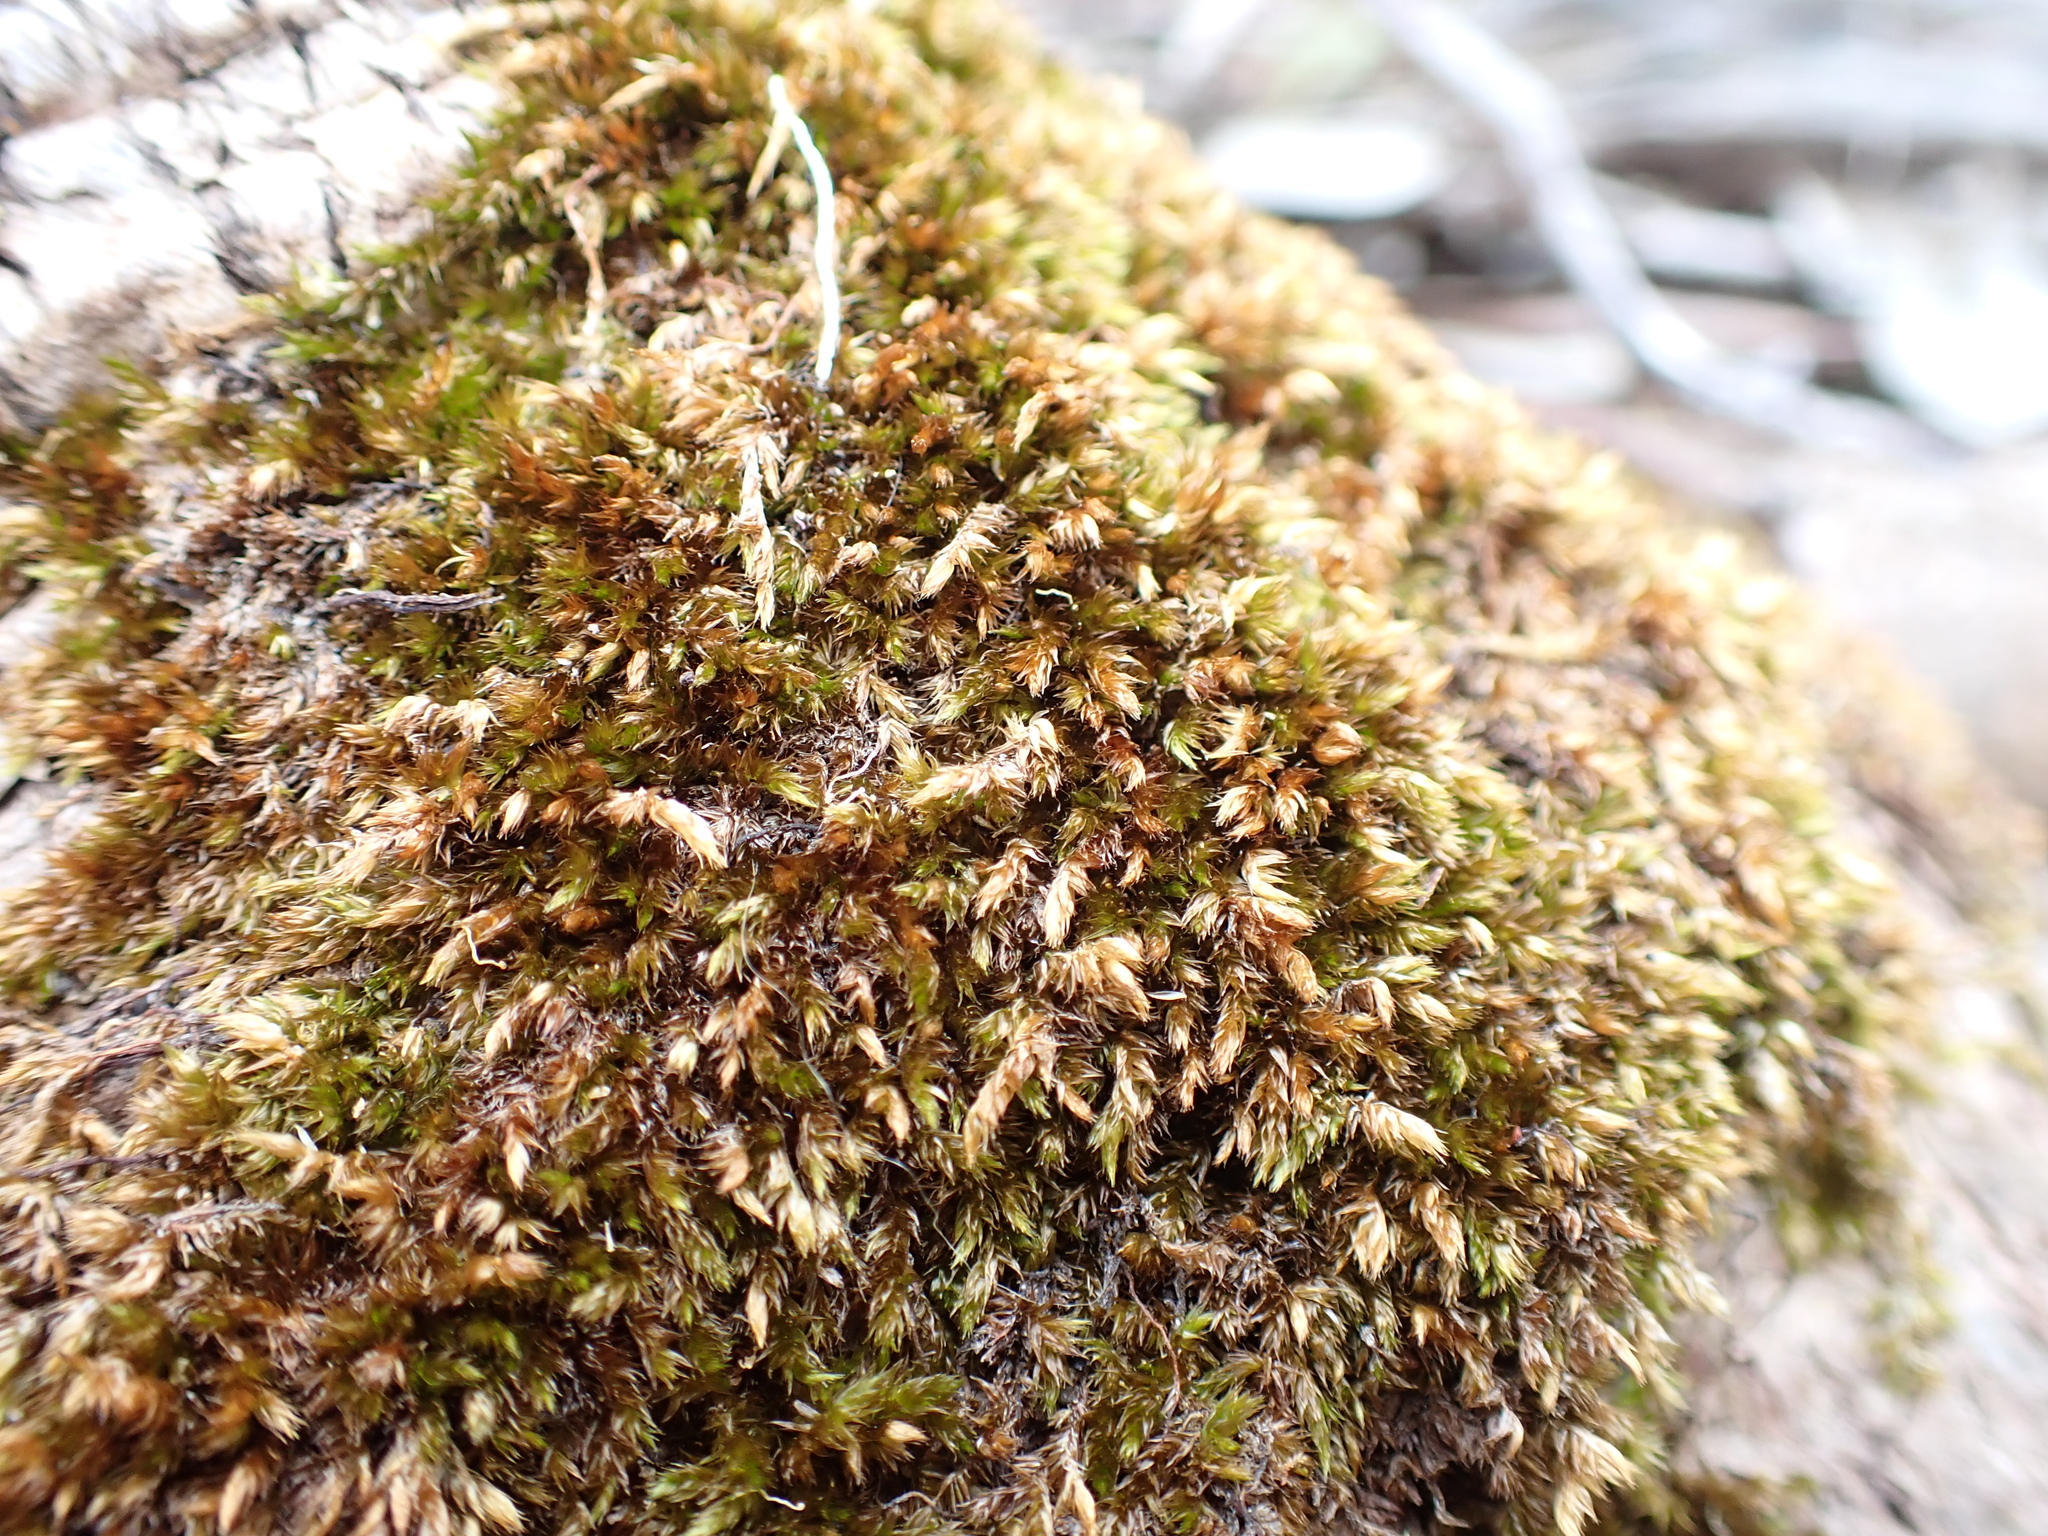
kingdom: Plantae
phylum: Bryophyta
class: Bryopsida
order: Hypnales
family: Sematophyllaceae
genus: Sematophyllum
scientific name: Sematophyllum homomallum
